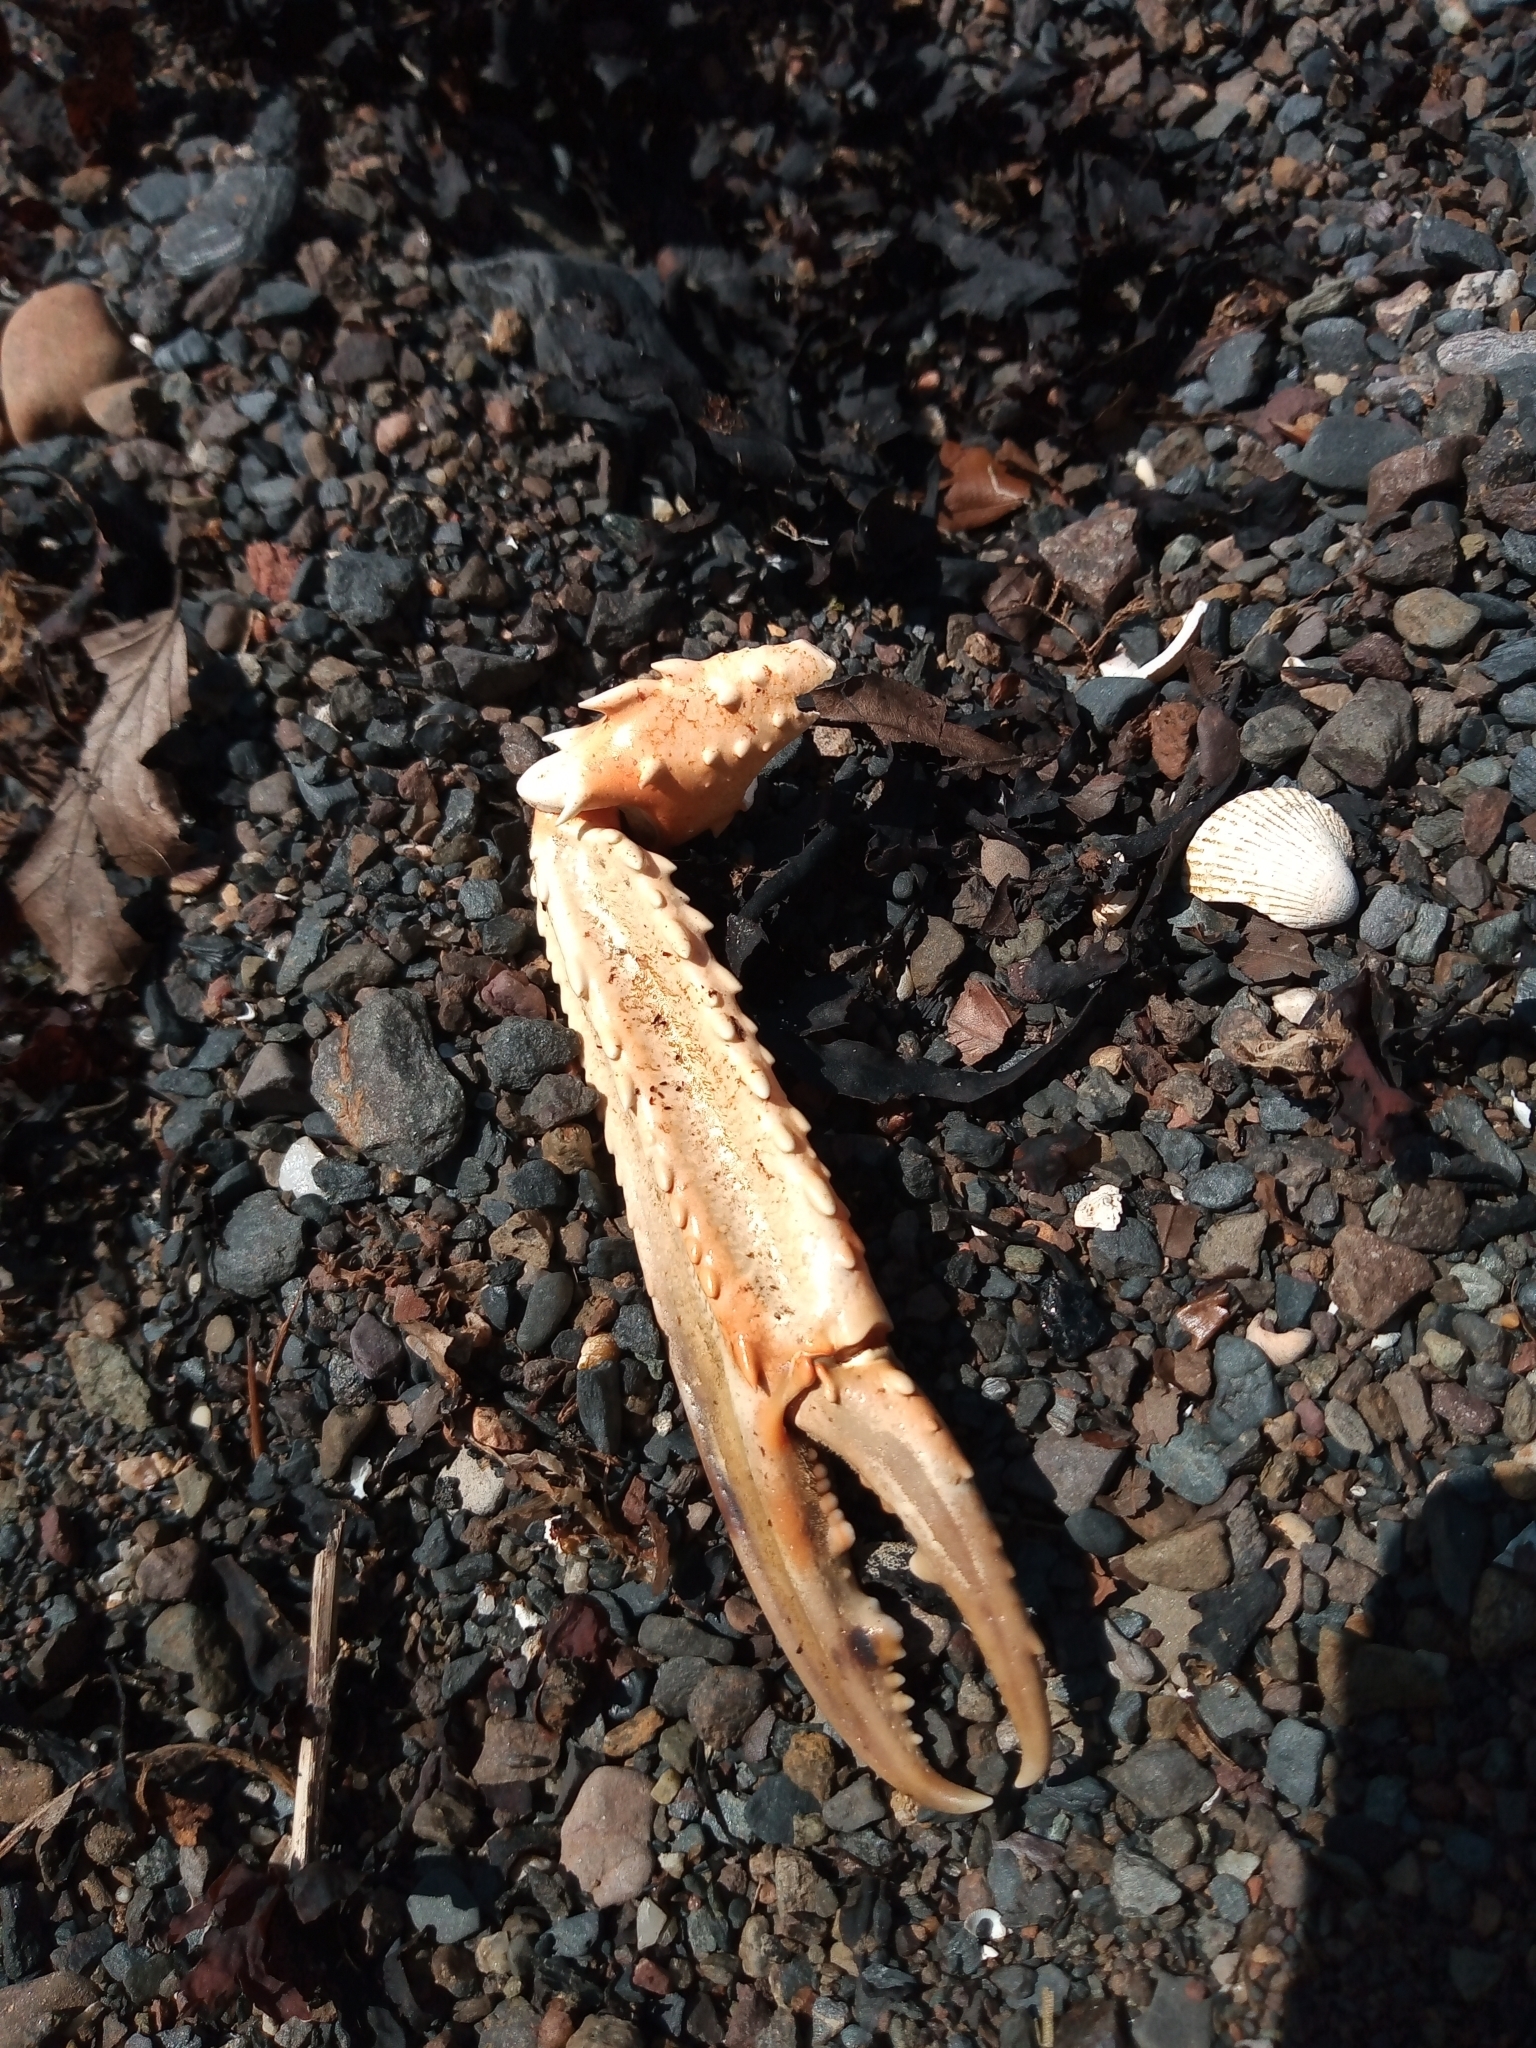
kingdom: Animalia
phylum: Arthropoda
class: Malacostraca
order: Decapoda
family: Nephropidae
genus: Nephrops
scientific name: Nephrops norvegicus
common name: Norway lobster
